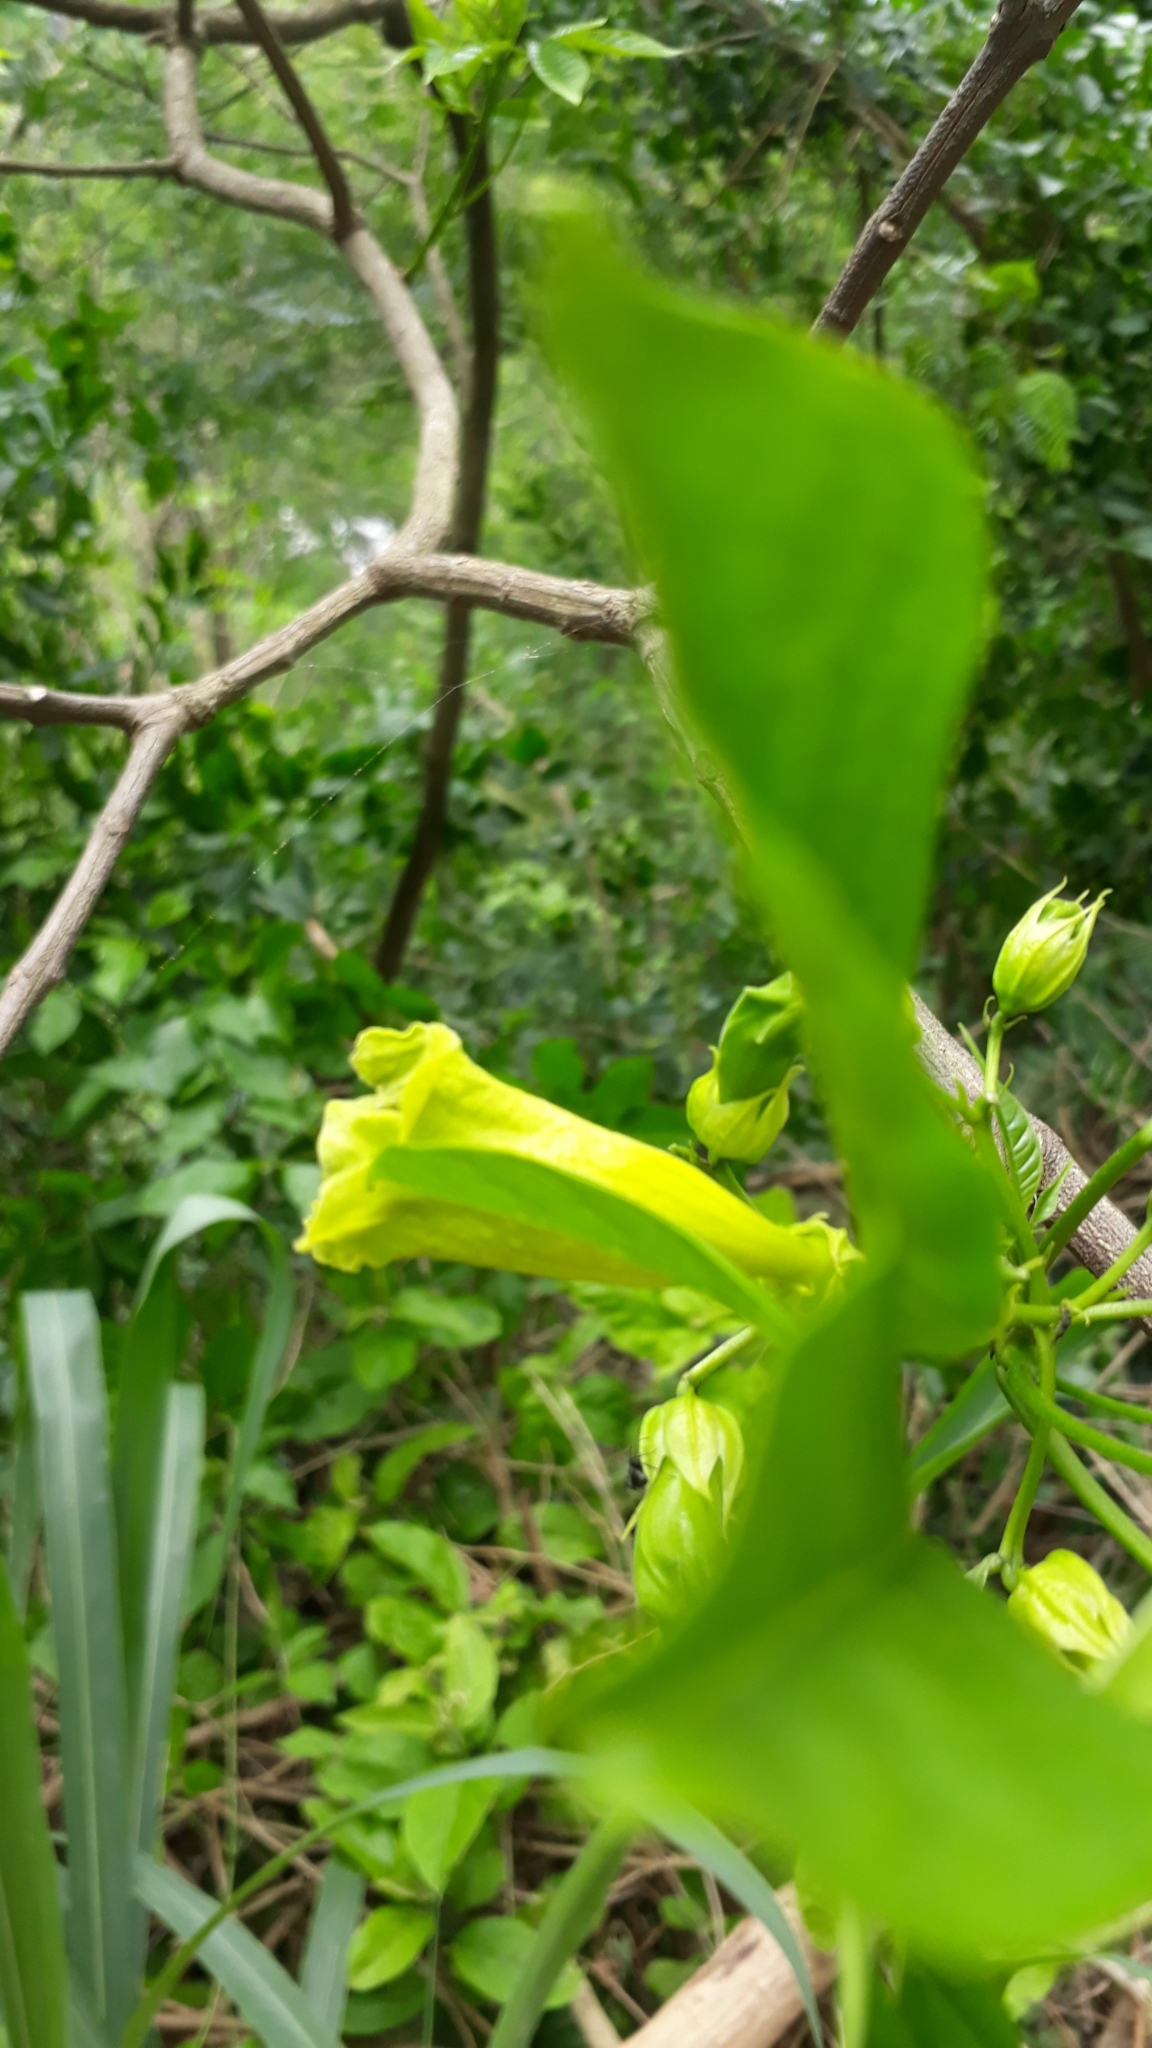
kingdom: Plantae
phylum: Tracheophyta
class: Magnoliopsida
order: Lamiales
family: Bignoniaceae
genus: Cybistax
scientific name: Cybistax antisyphilitica
